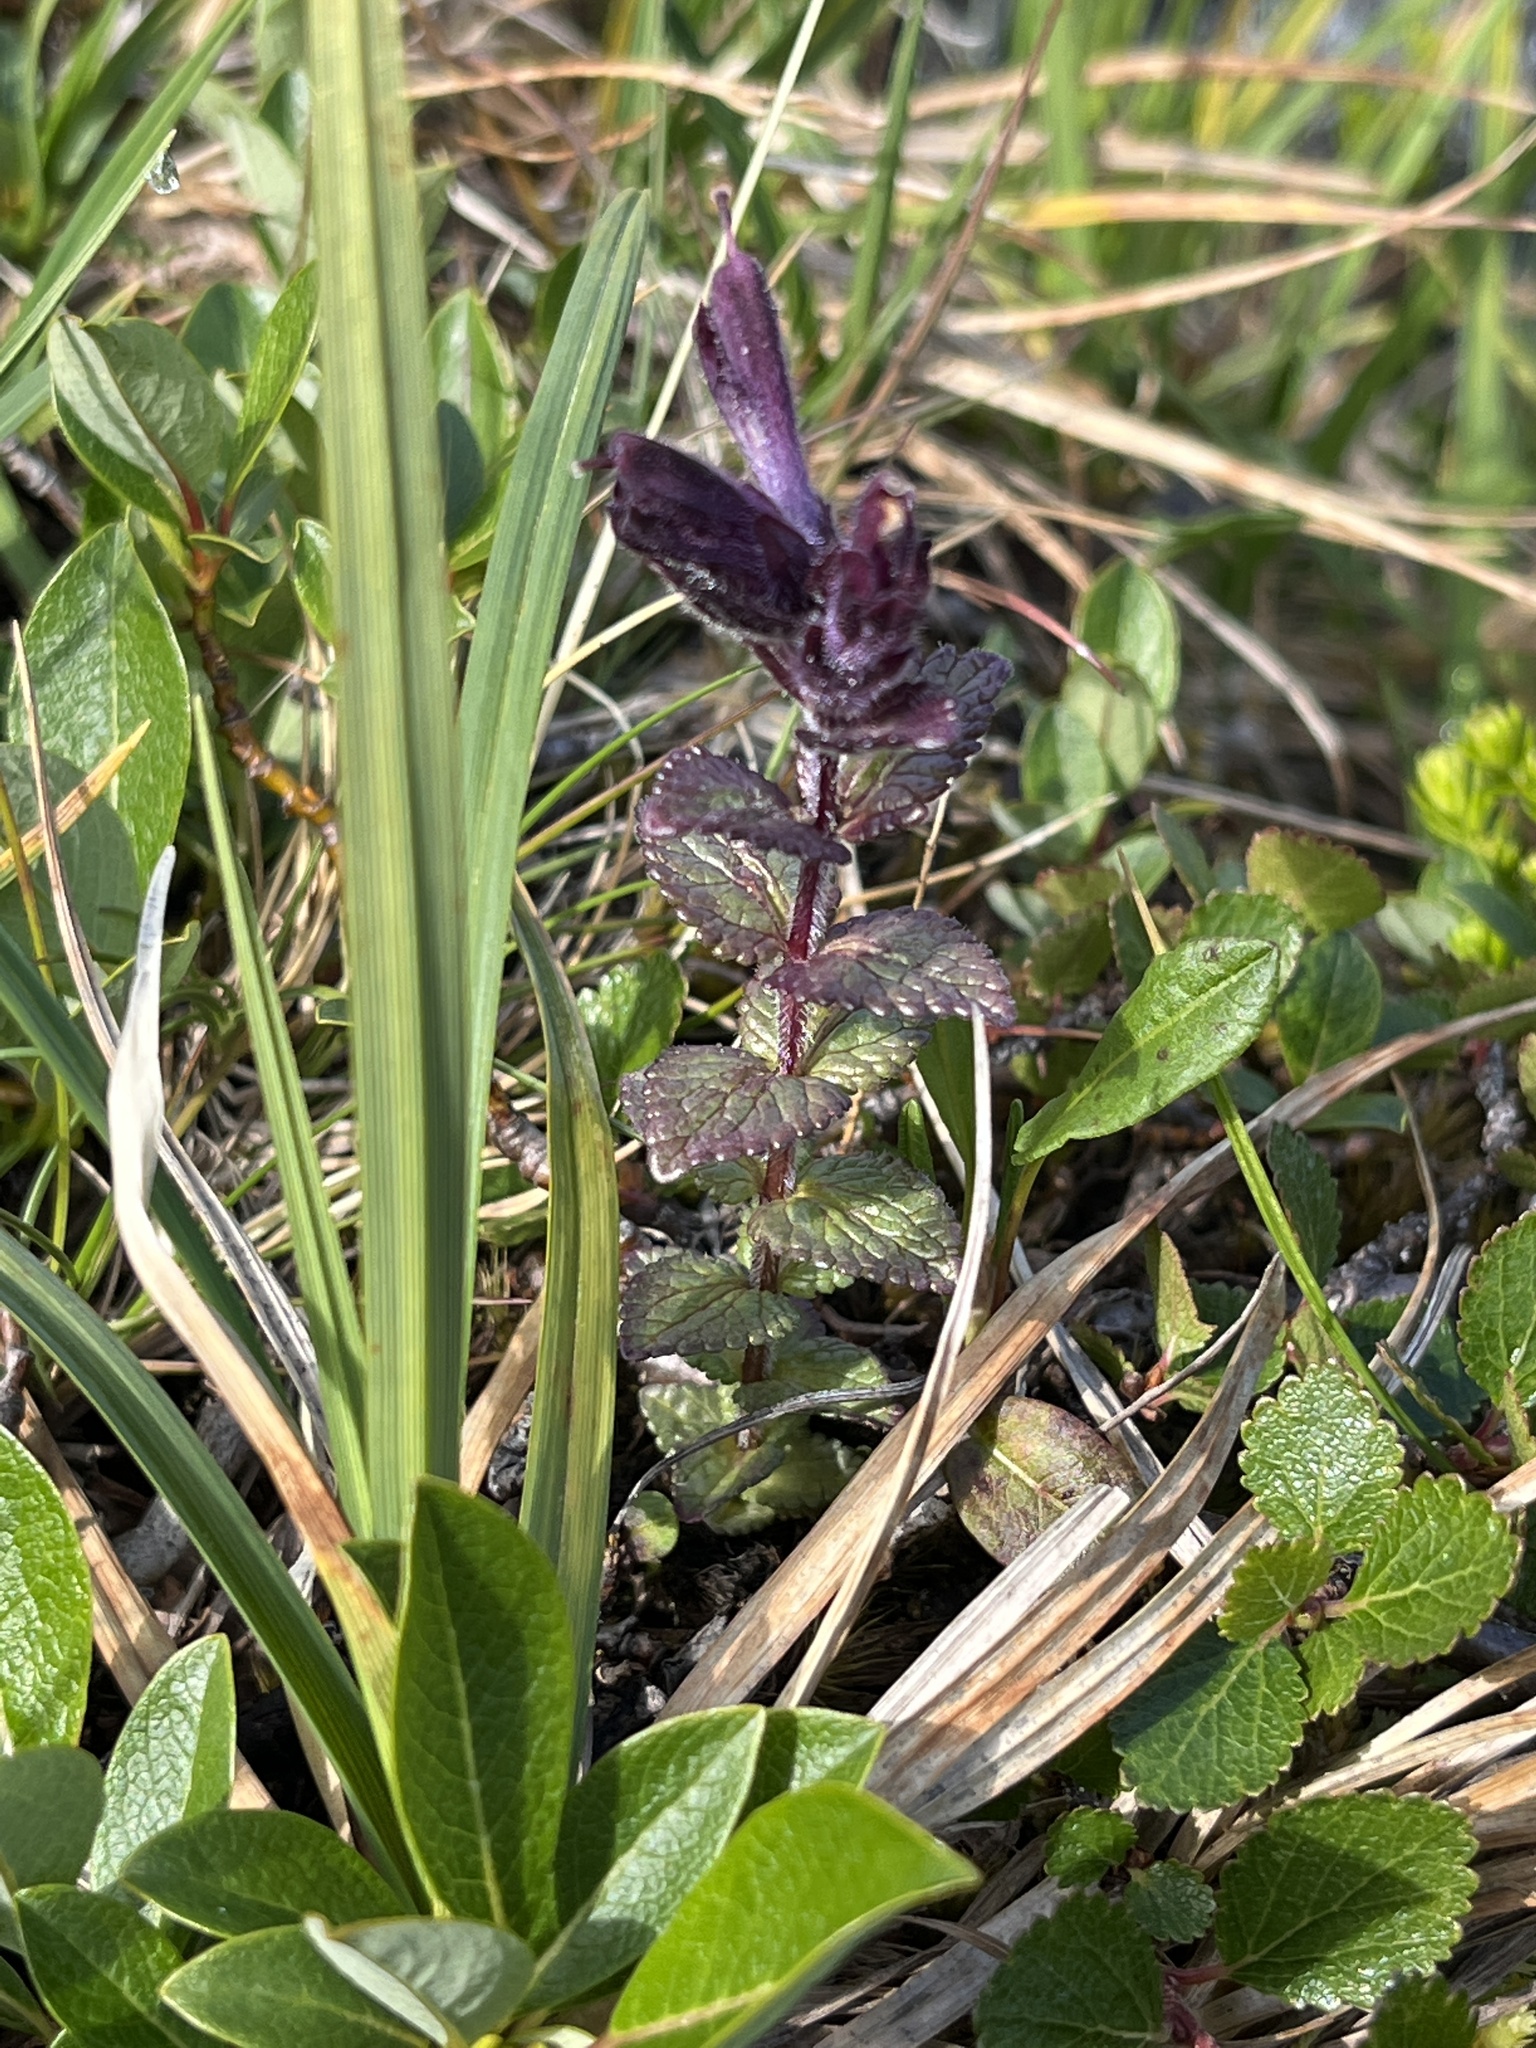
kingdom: Plantae
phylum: Tracheophyta
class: Magnoliopsida
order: Lamiales
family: Orobanchaceae
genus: Bartsia
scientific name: Bartsia alpina
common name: Alpine bartsia
